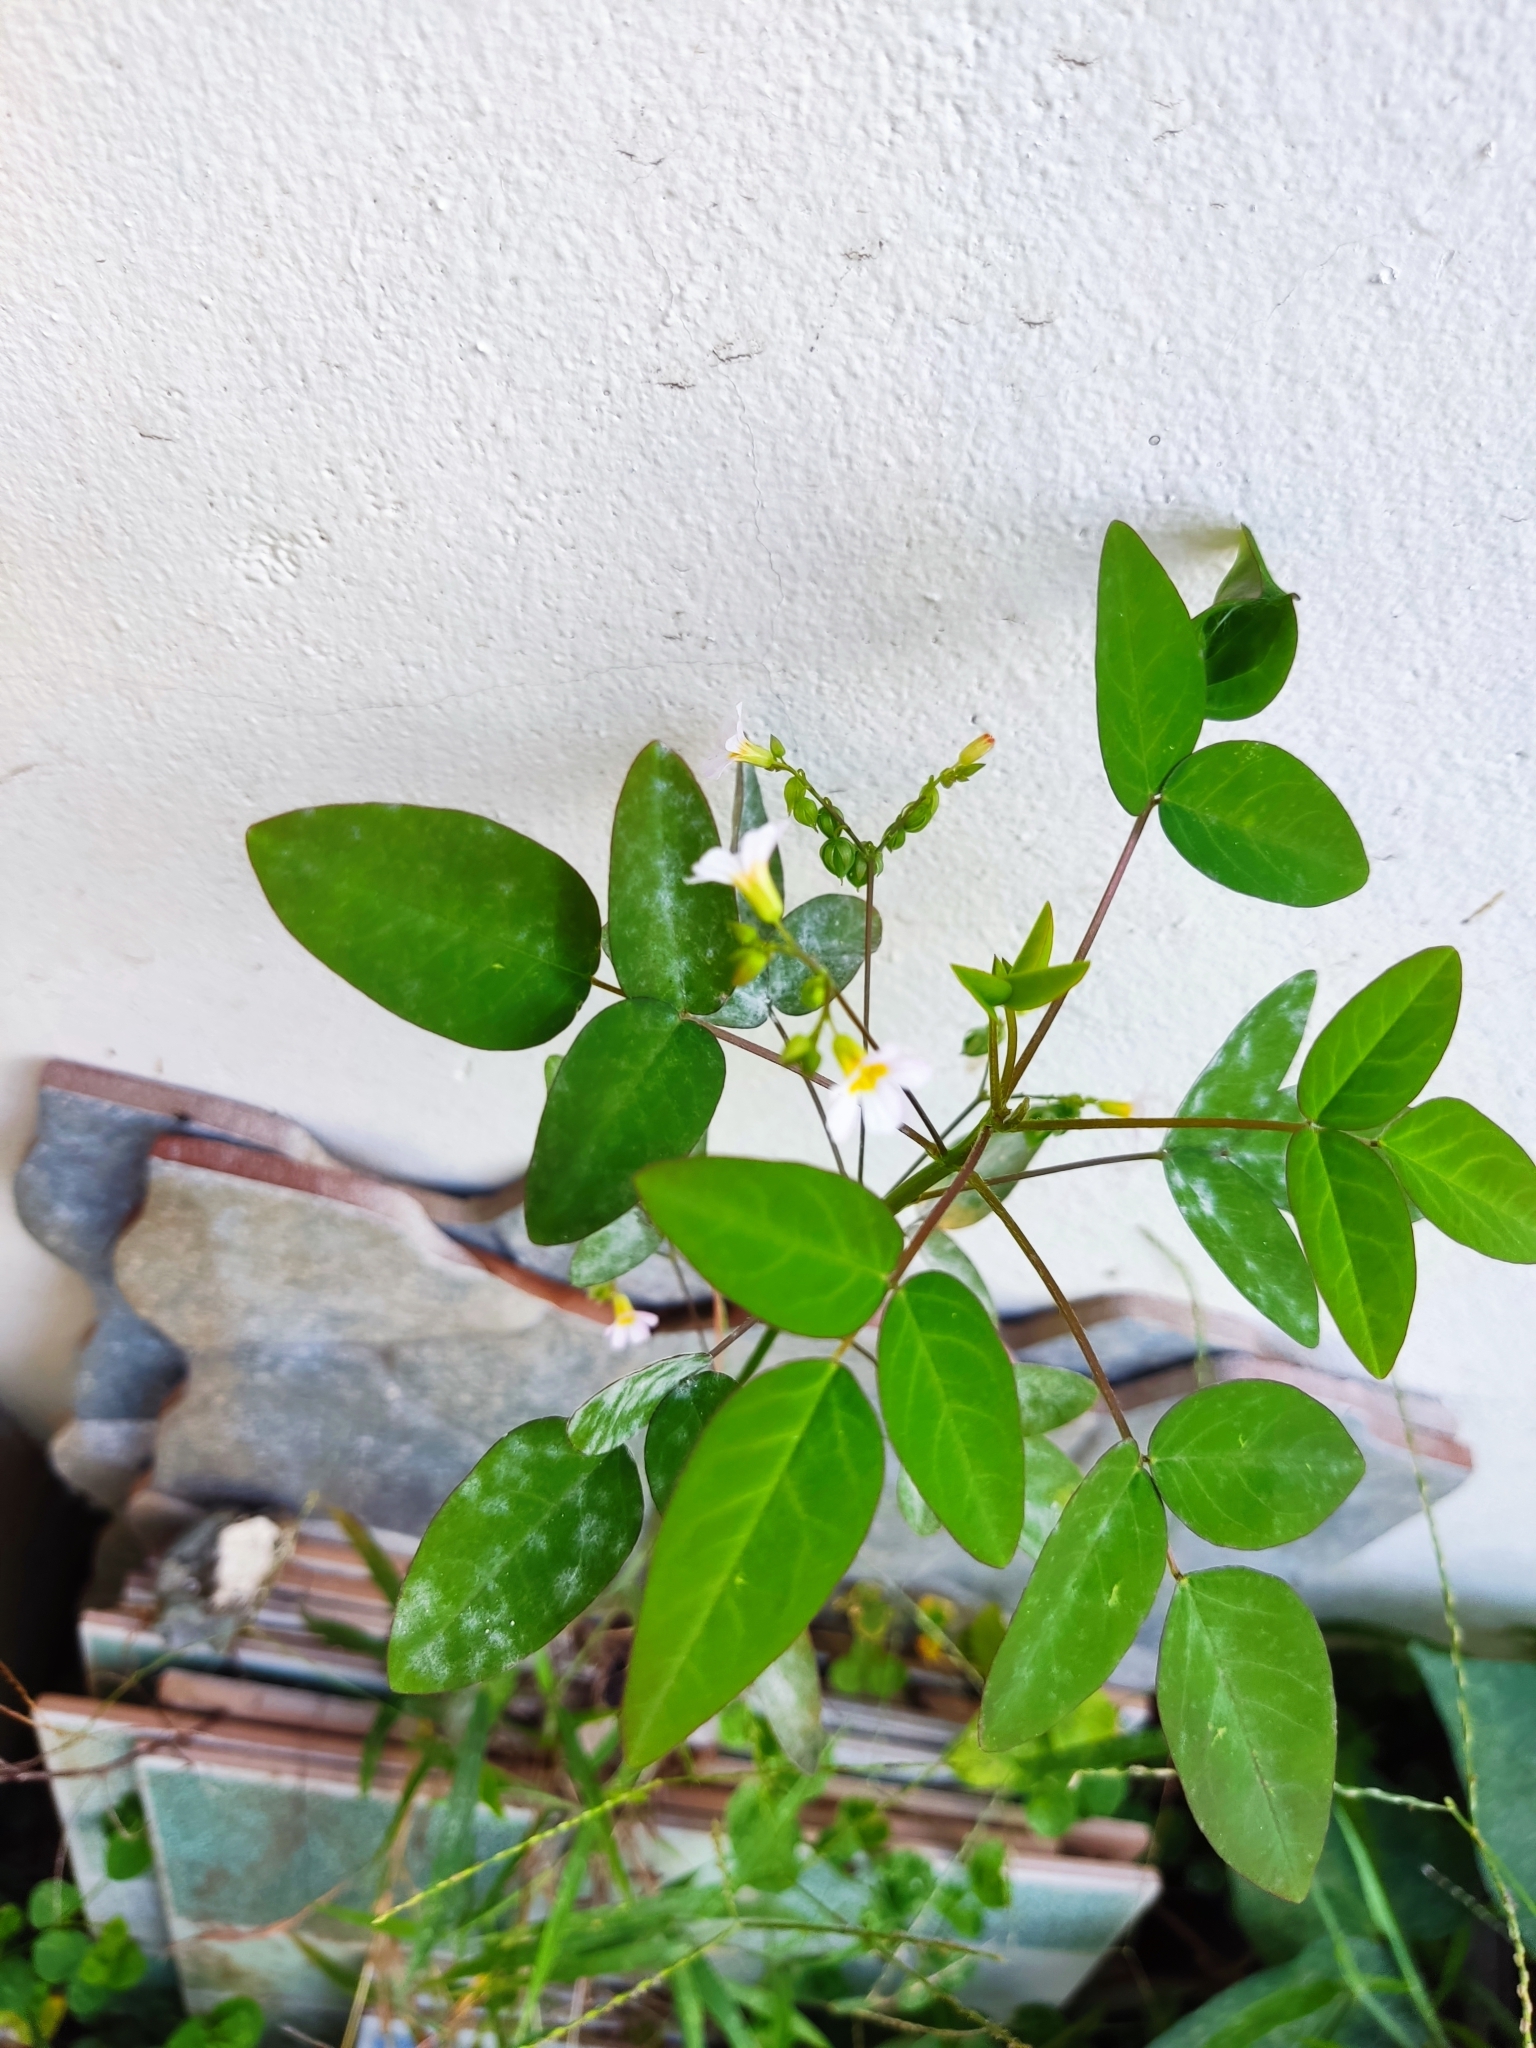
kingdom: Plantae
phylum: Tracheophyta
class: Magnoliopsida
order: Oxalidales
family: Oxalidaceae
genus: Oxalis
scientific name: Oxalis barrelieri
